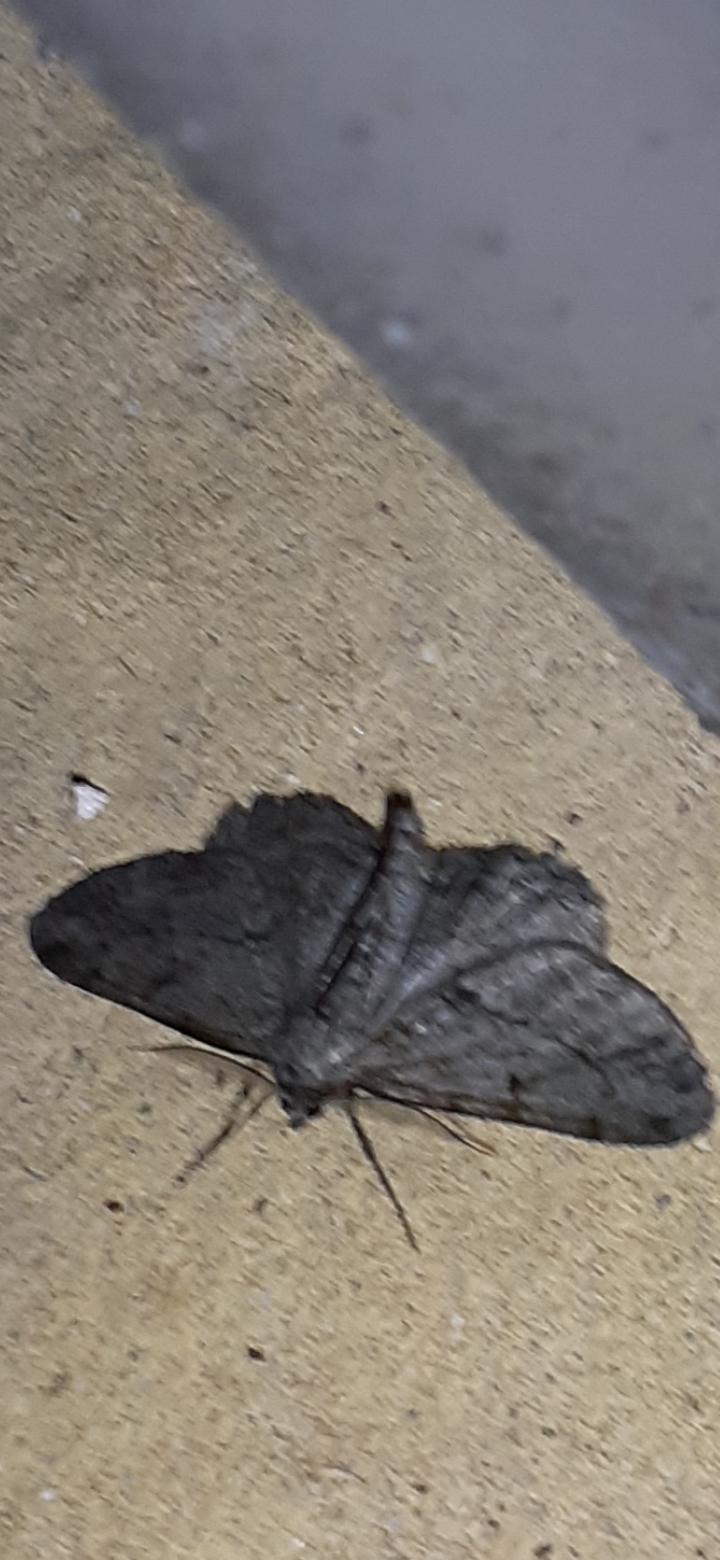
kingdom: Animalia
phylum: Arthropoda
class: Insecta
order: Lepidoptera
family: Geometridae
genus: Peribatodes
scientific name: Peribatodes rhomboidaria
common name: Willow beauty
